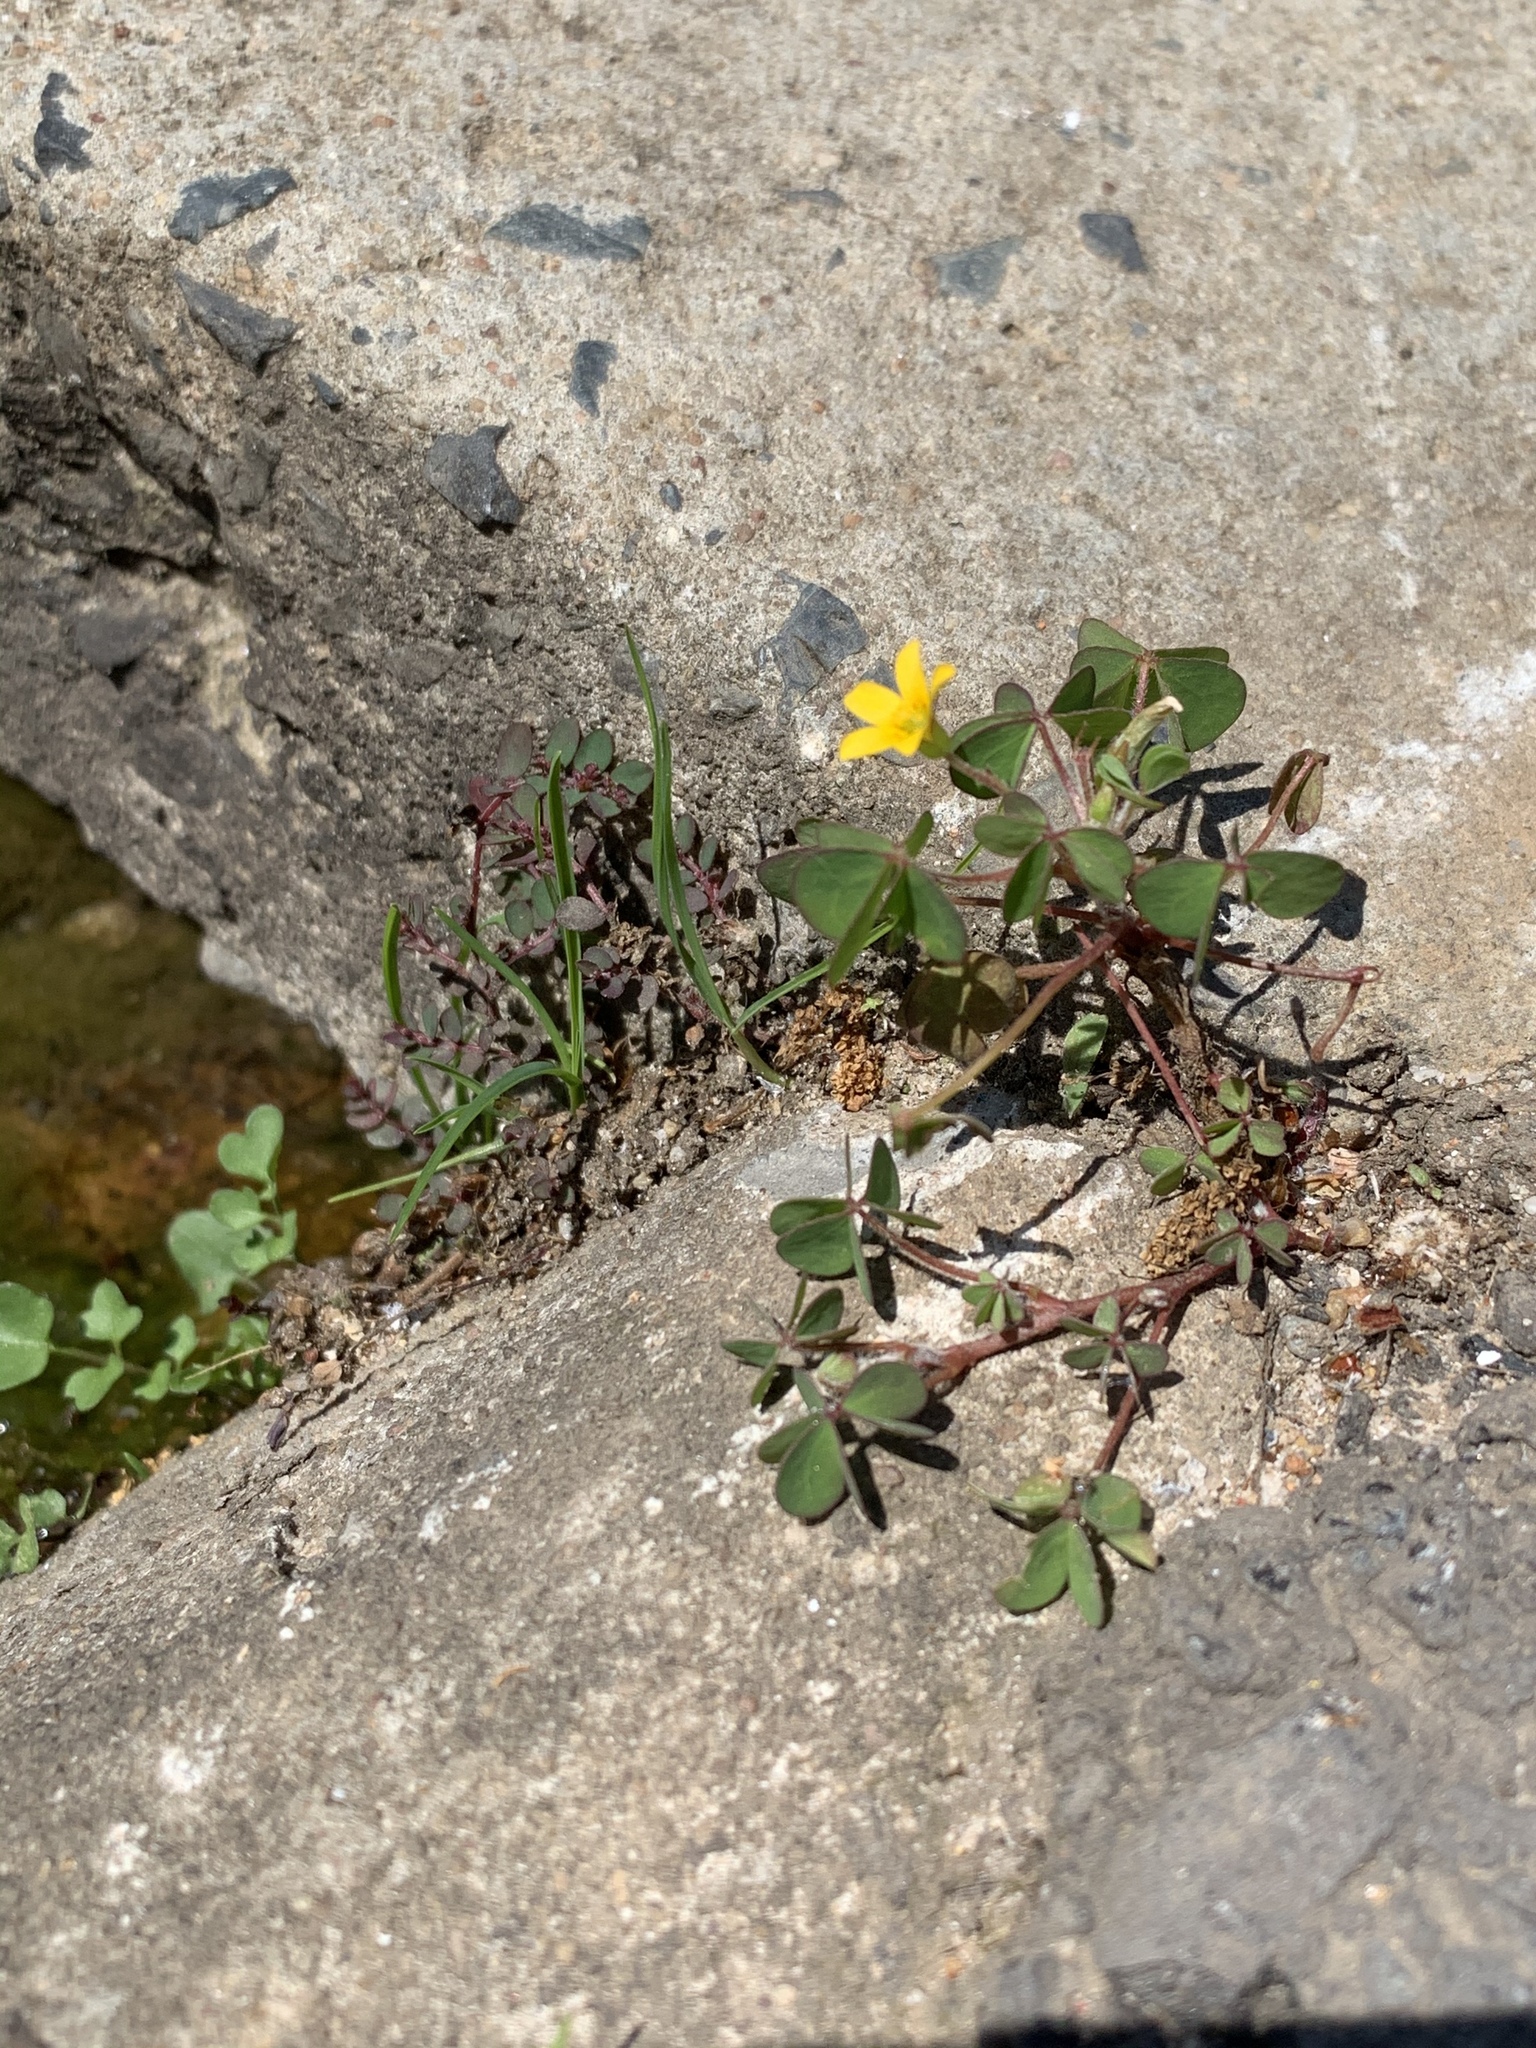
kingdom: Plantae
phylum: Tracheophyta
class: Magnoliopsida
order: Oxalidales
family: Oxalidaceae
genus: Oxalis
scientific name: Oxalis corniculata
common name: Procumbent yellow-sorrel
